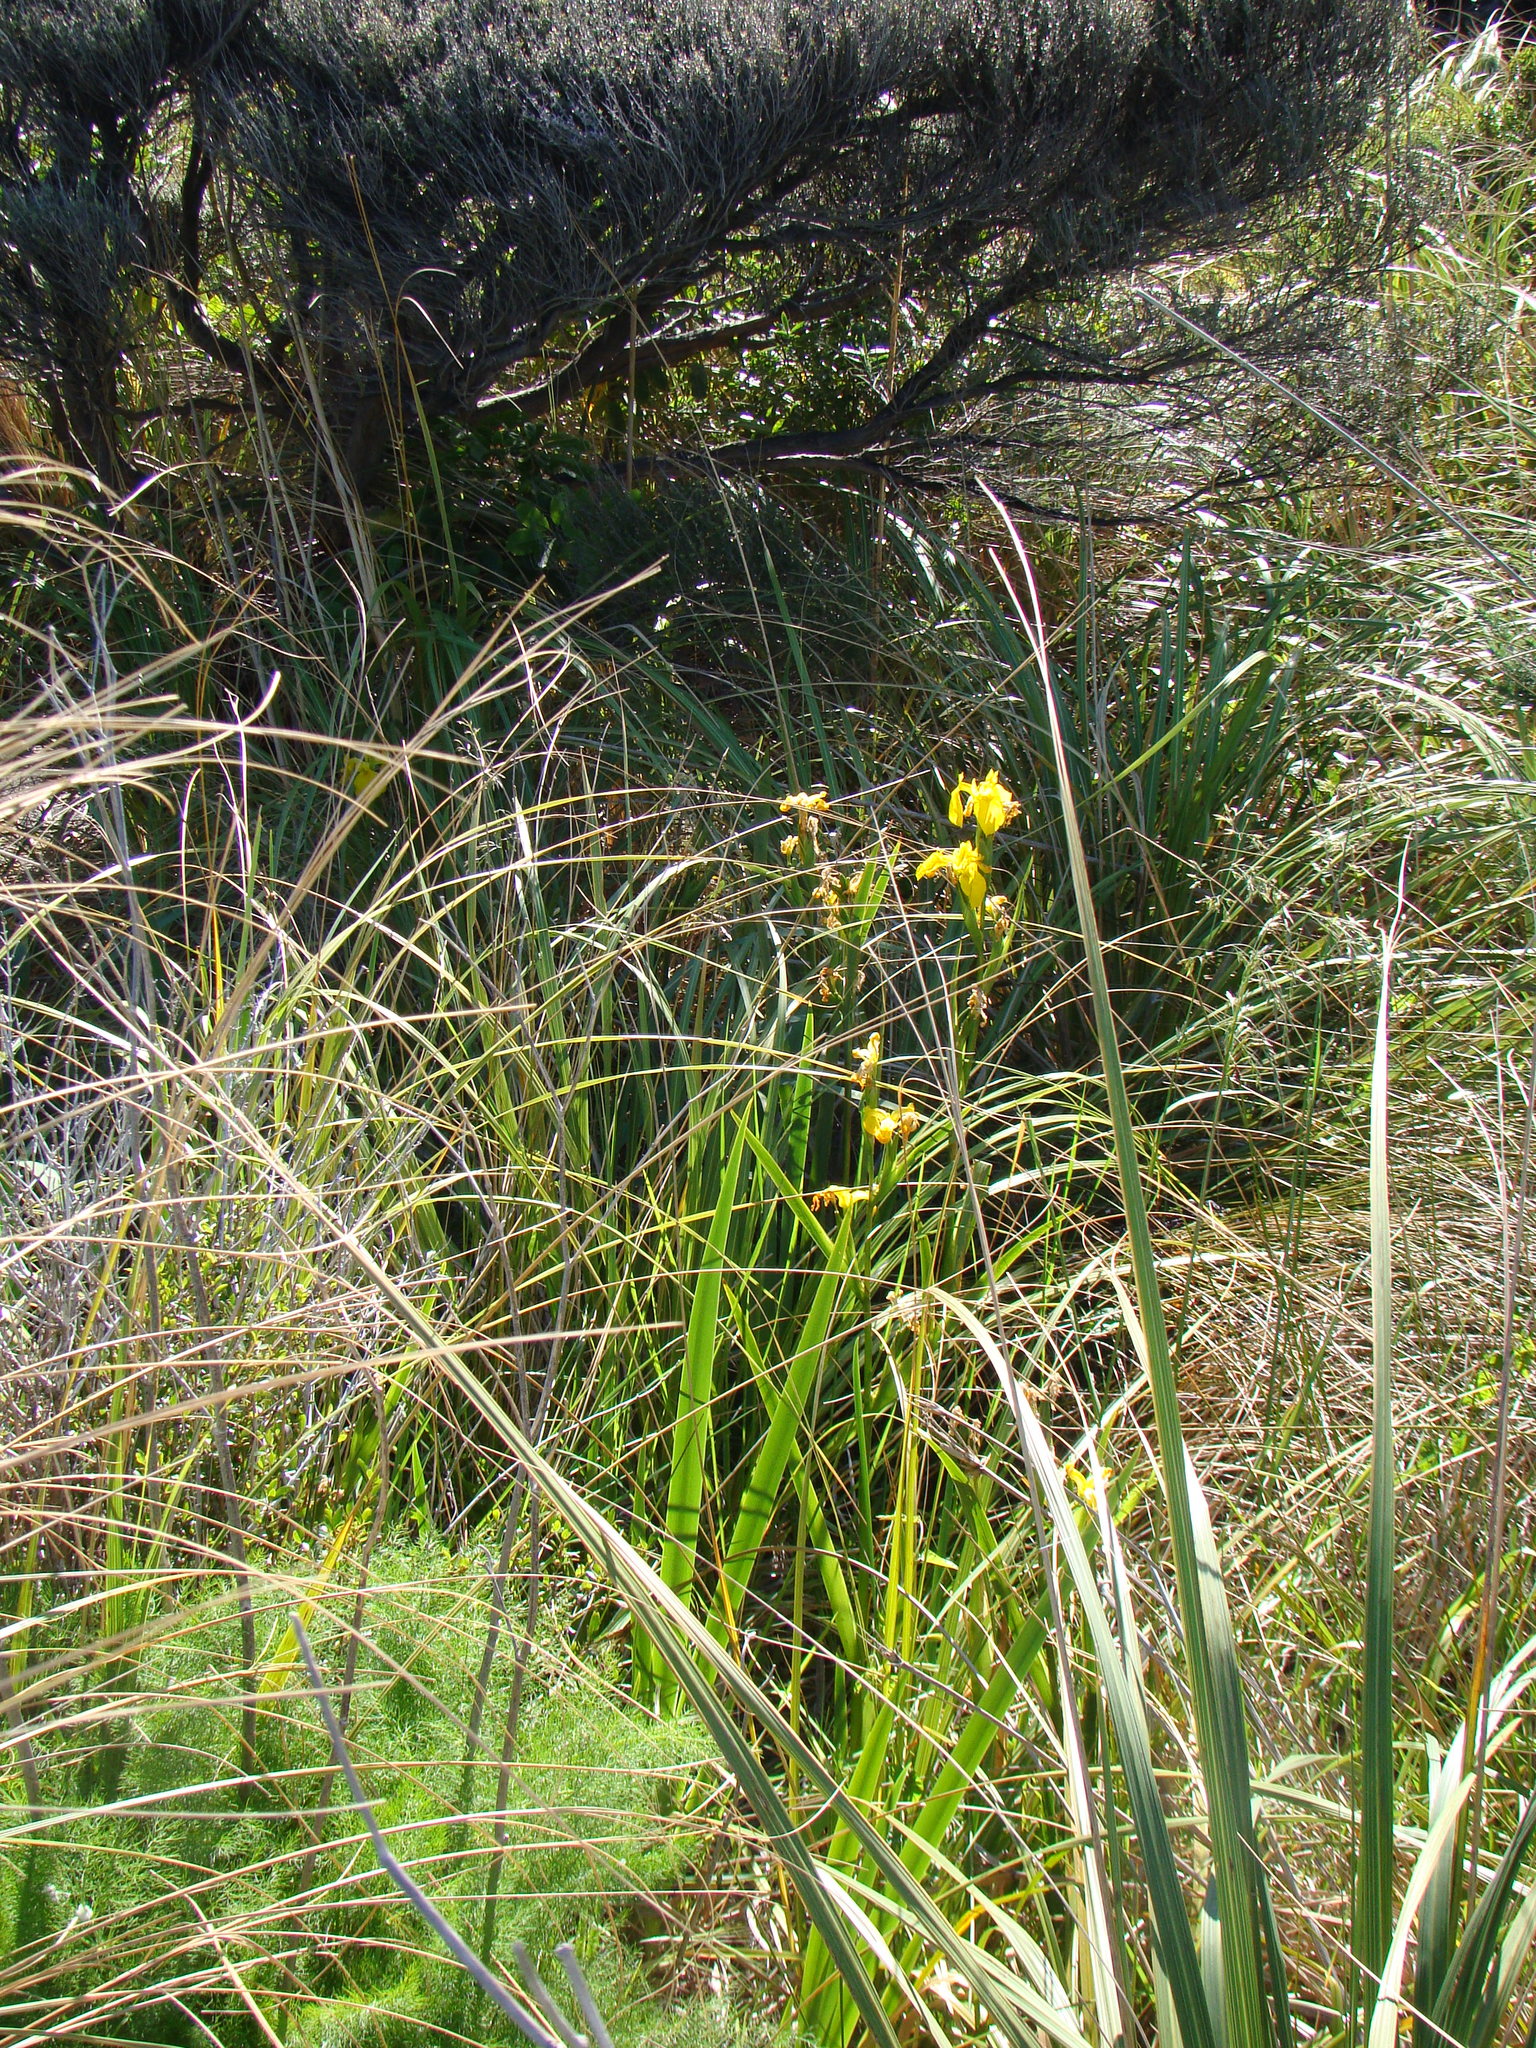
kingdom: Plantae
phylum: Tracheophyta
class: Liliopsida
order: Asparagales
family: Iridaceae
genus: Iris
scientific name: Iris pseudacorus
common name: Yellow flag
